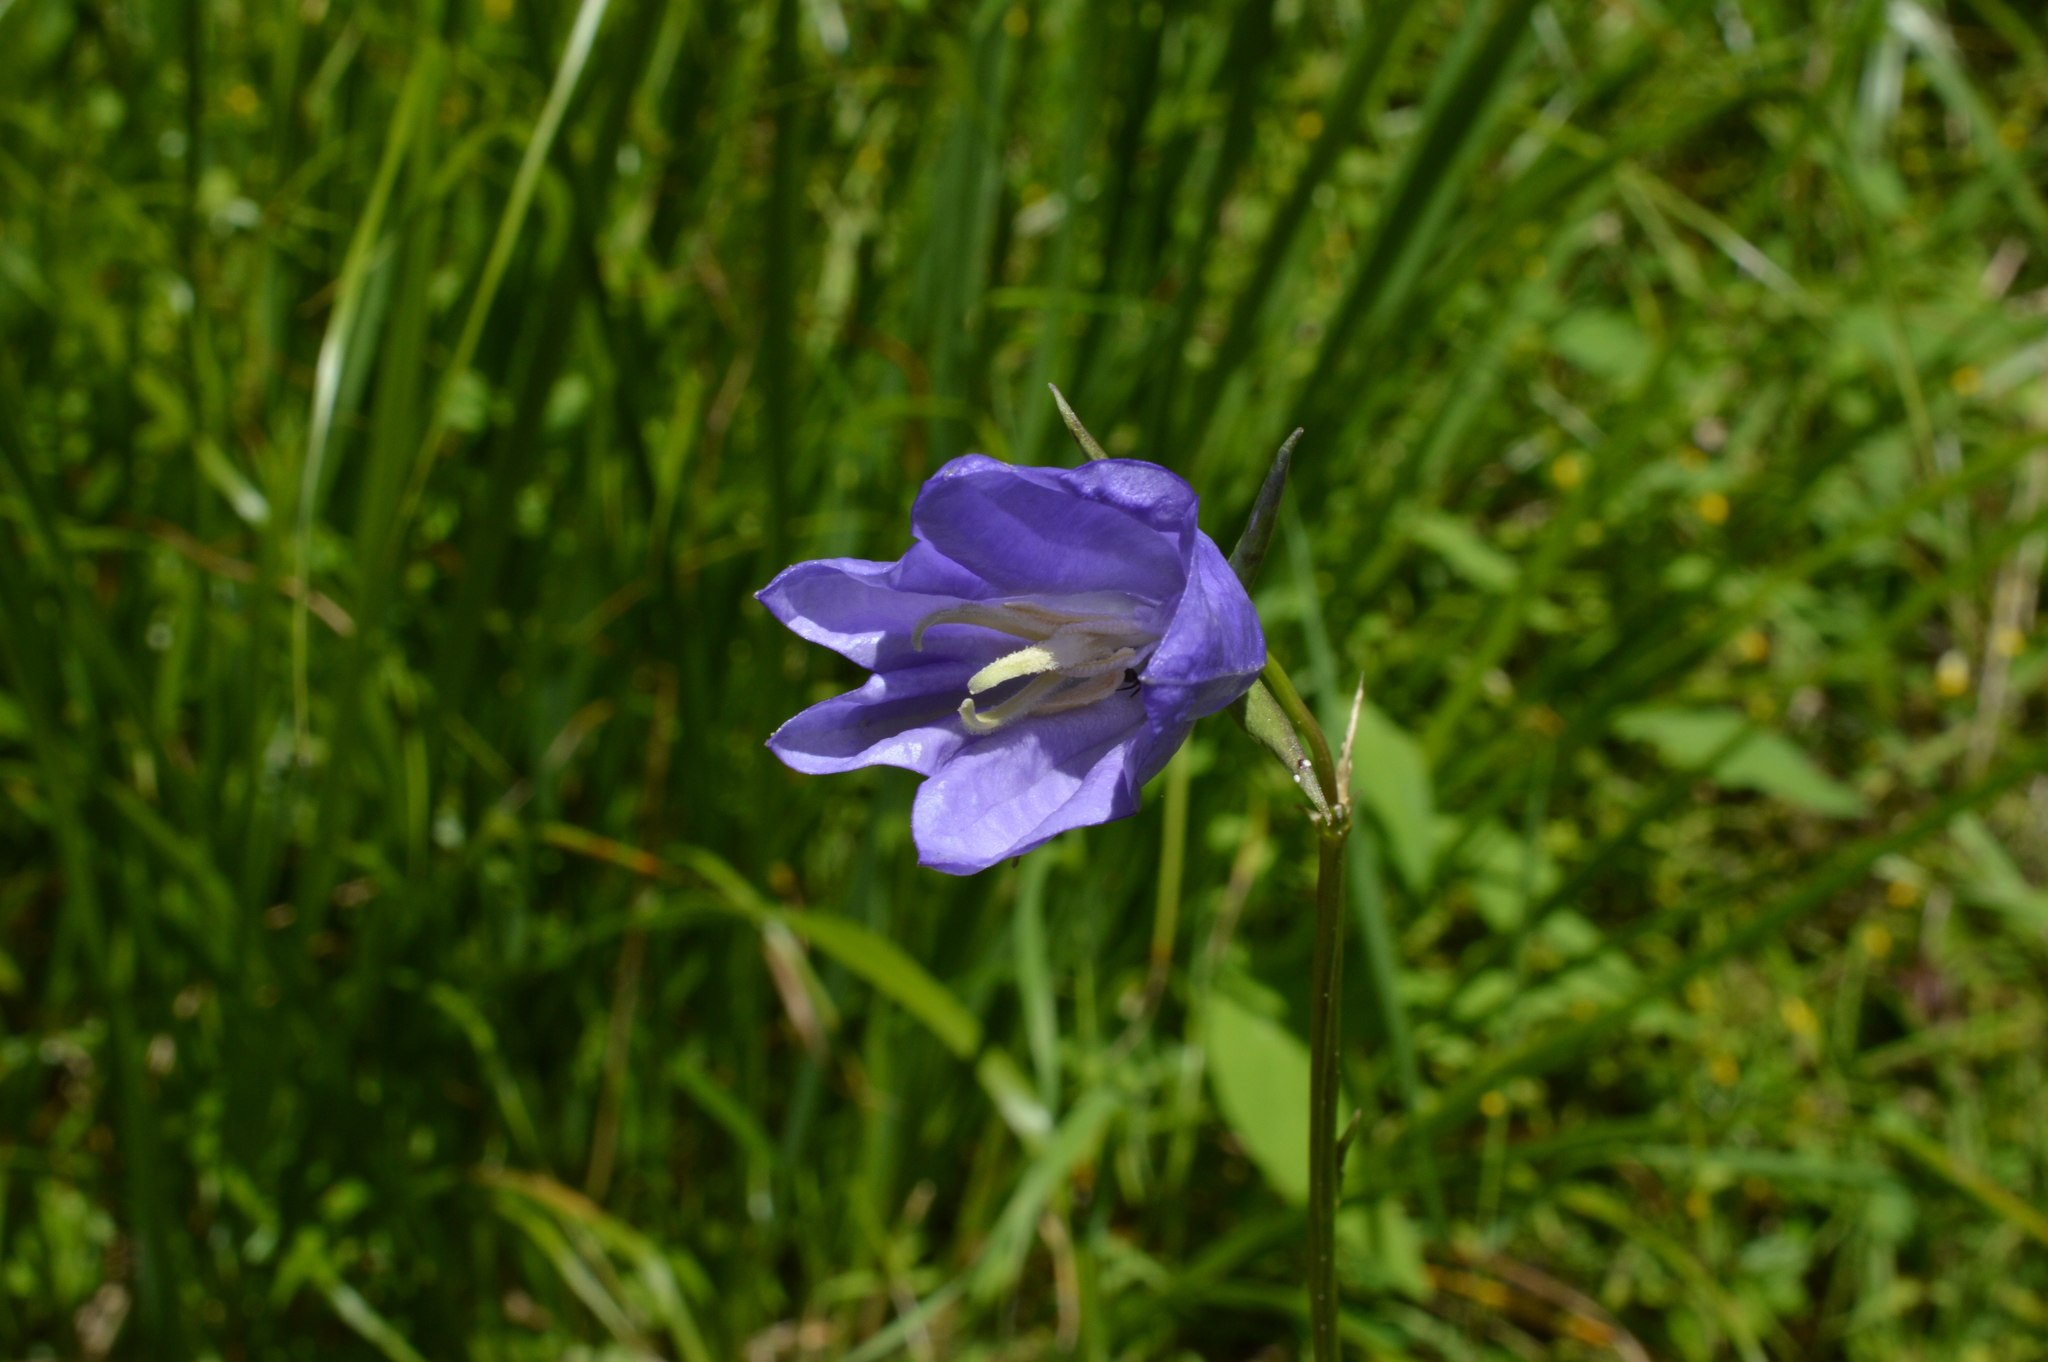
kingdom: Plantae
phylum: Tracheophyta
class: Magnoliopsida
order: Asterales
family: Campanulaceae
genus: Campanula
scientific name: Campanula persicifolia
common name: Peach-leaved bellflower
